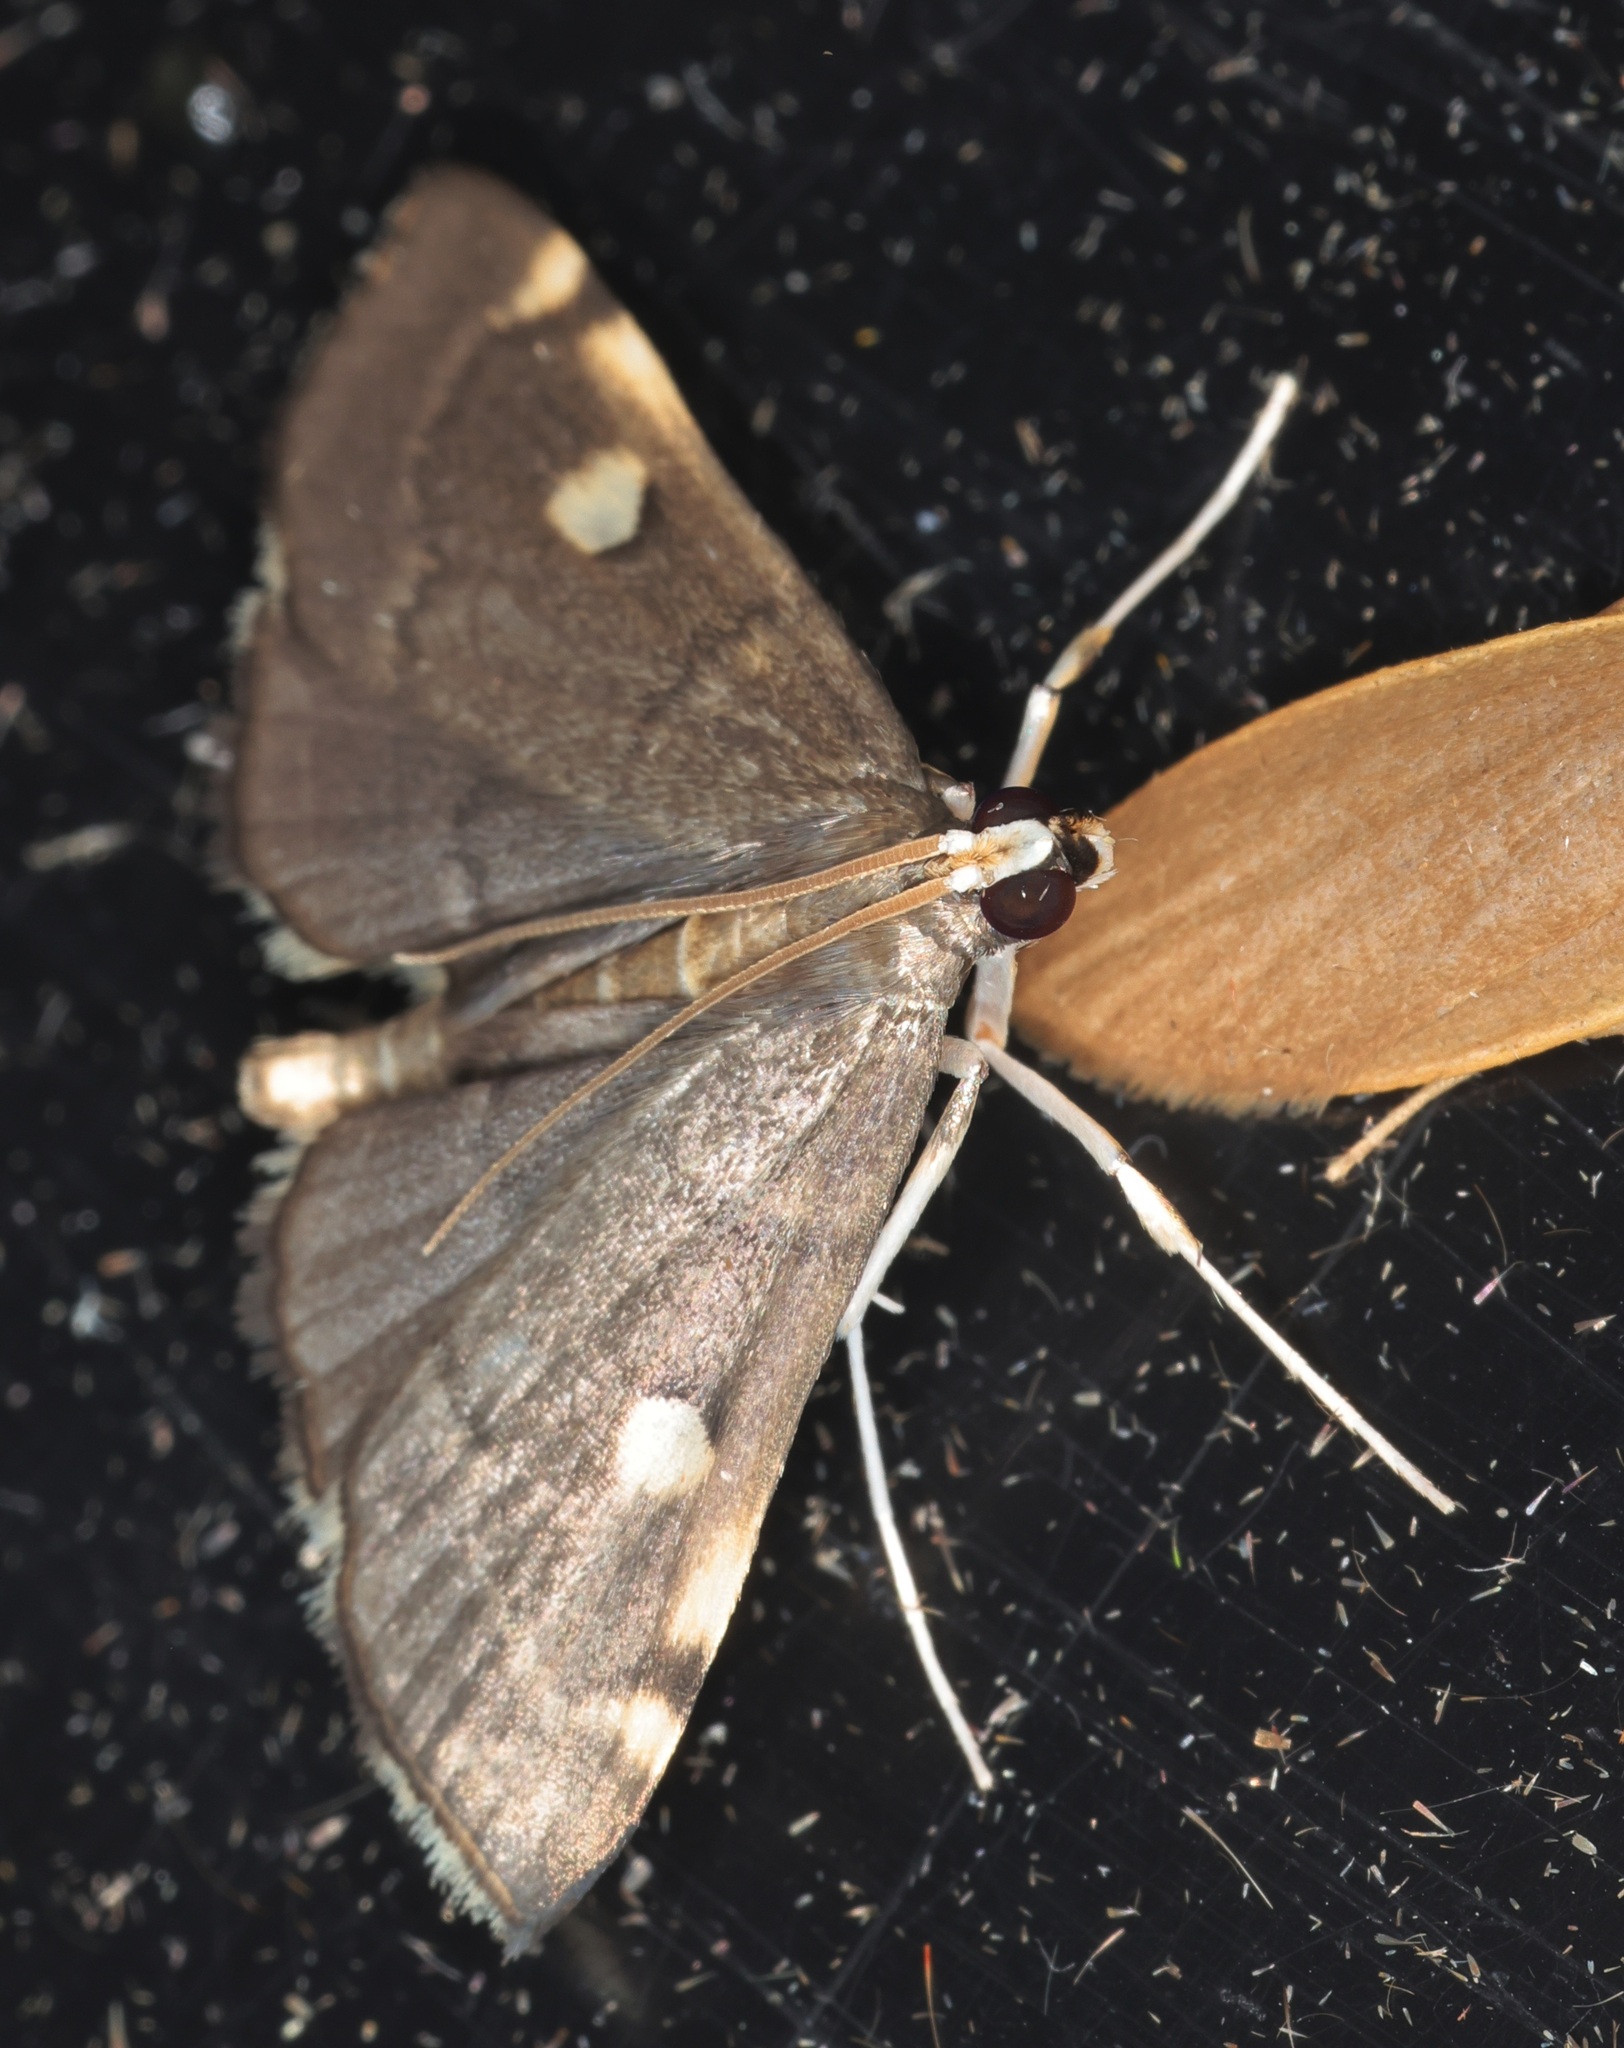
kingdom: Animalia
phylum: Arthropoda
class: Insecta
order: Lepidoptera
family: Crambidae
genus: Luma
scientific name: Luma sericea
